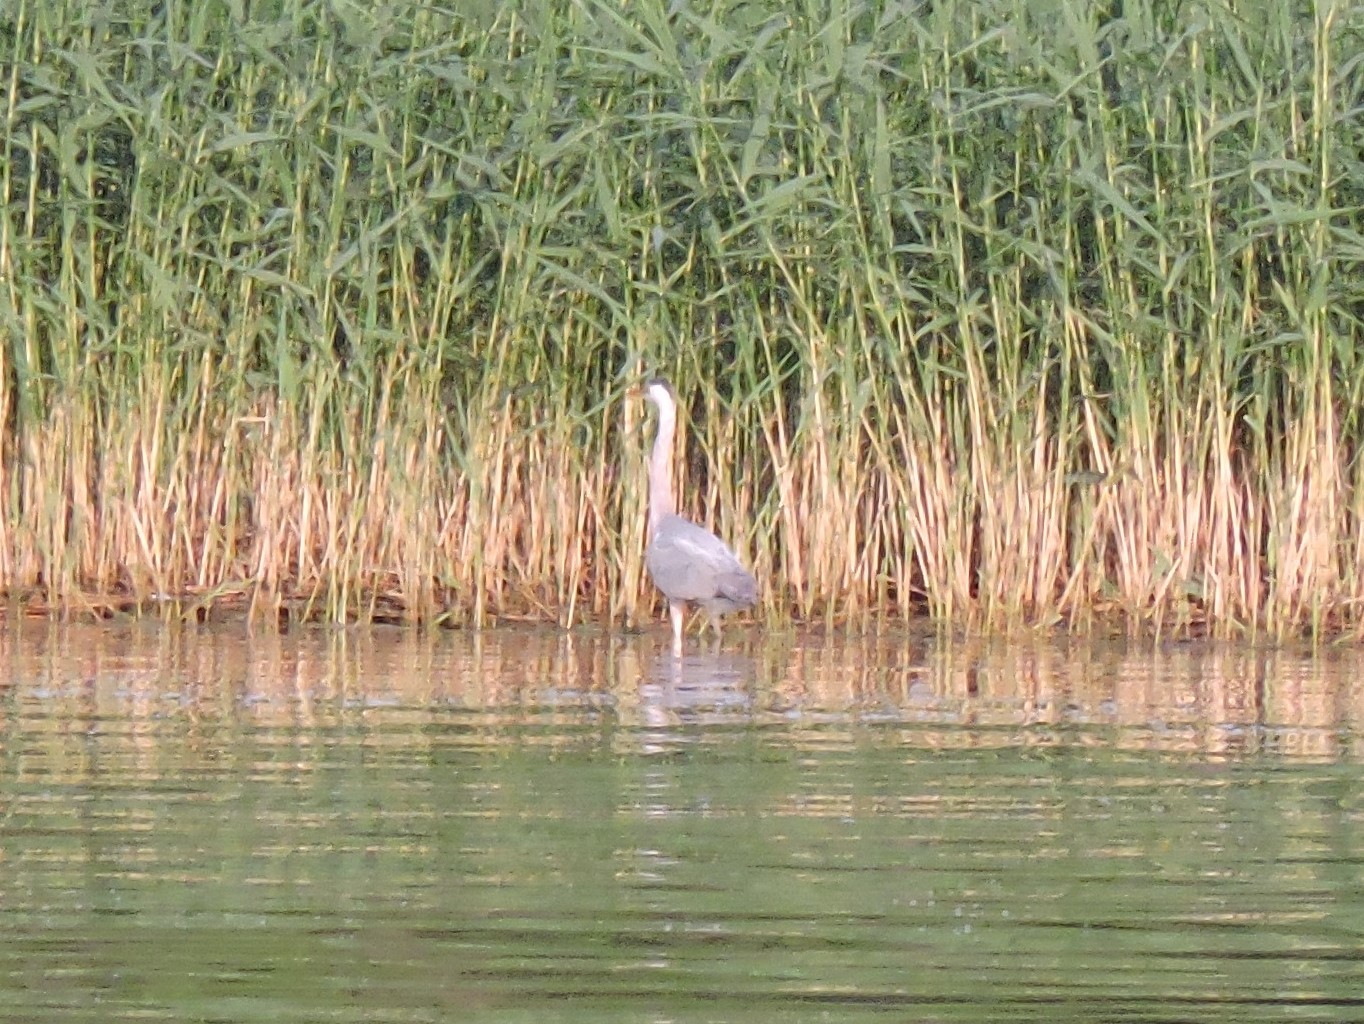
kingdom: Animalia
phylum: Chordata
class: Aves
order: Pelecaniformes
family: Ardeidae
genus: Ardea
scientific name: Ardea cinerea
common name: Grey heron
